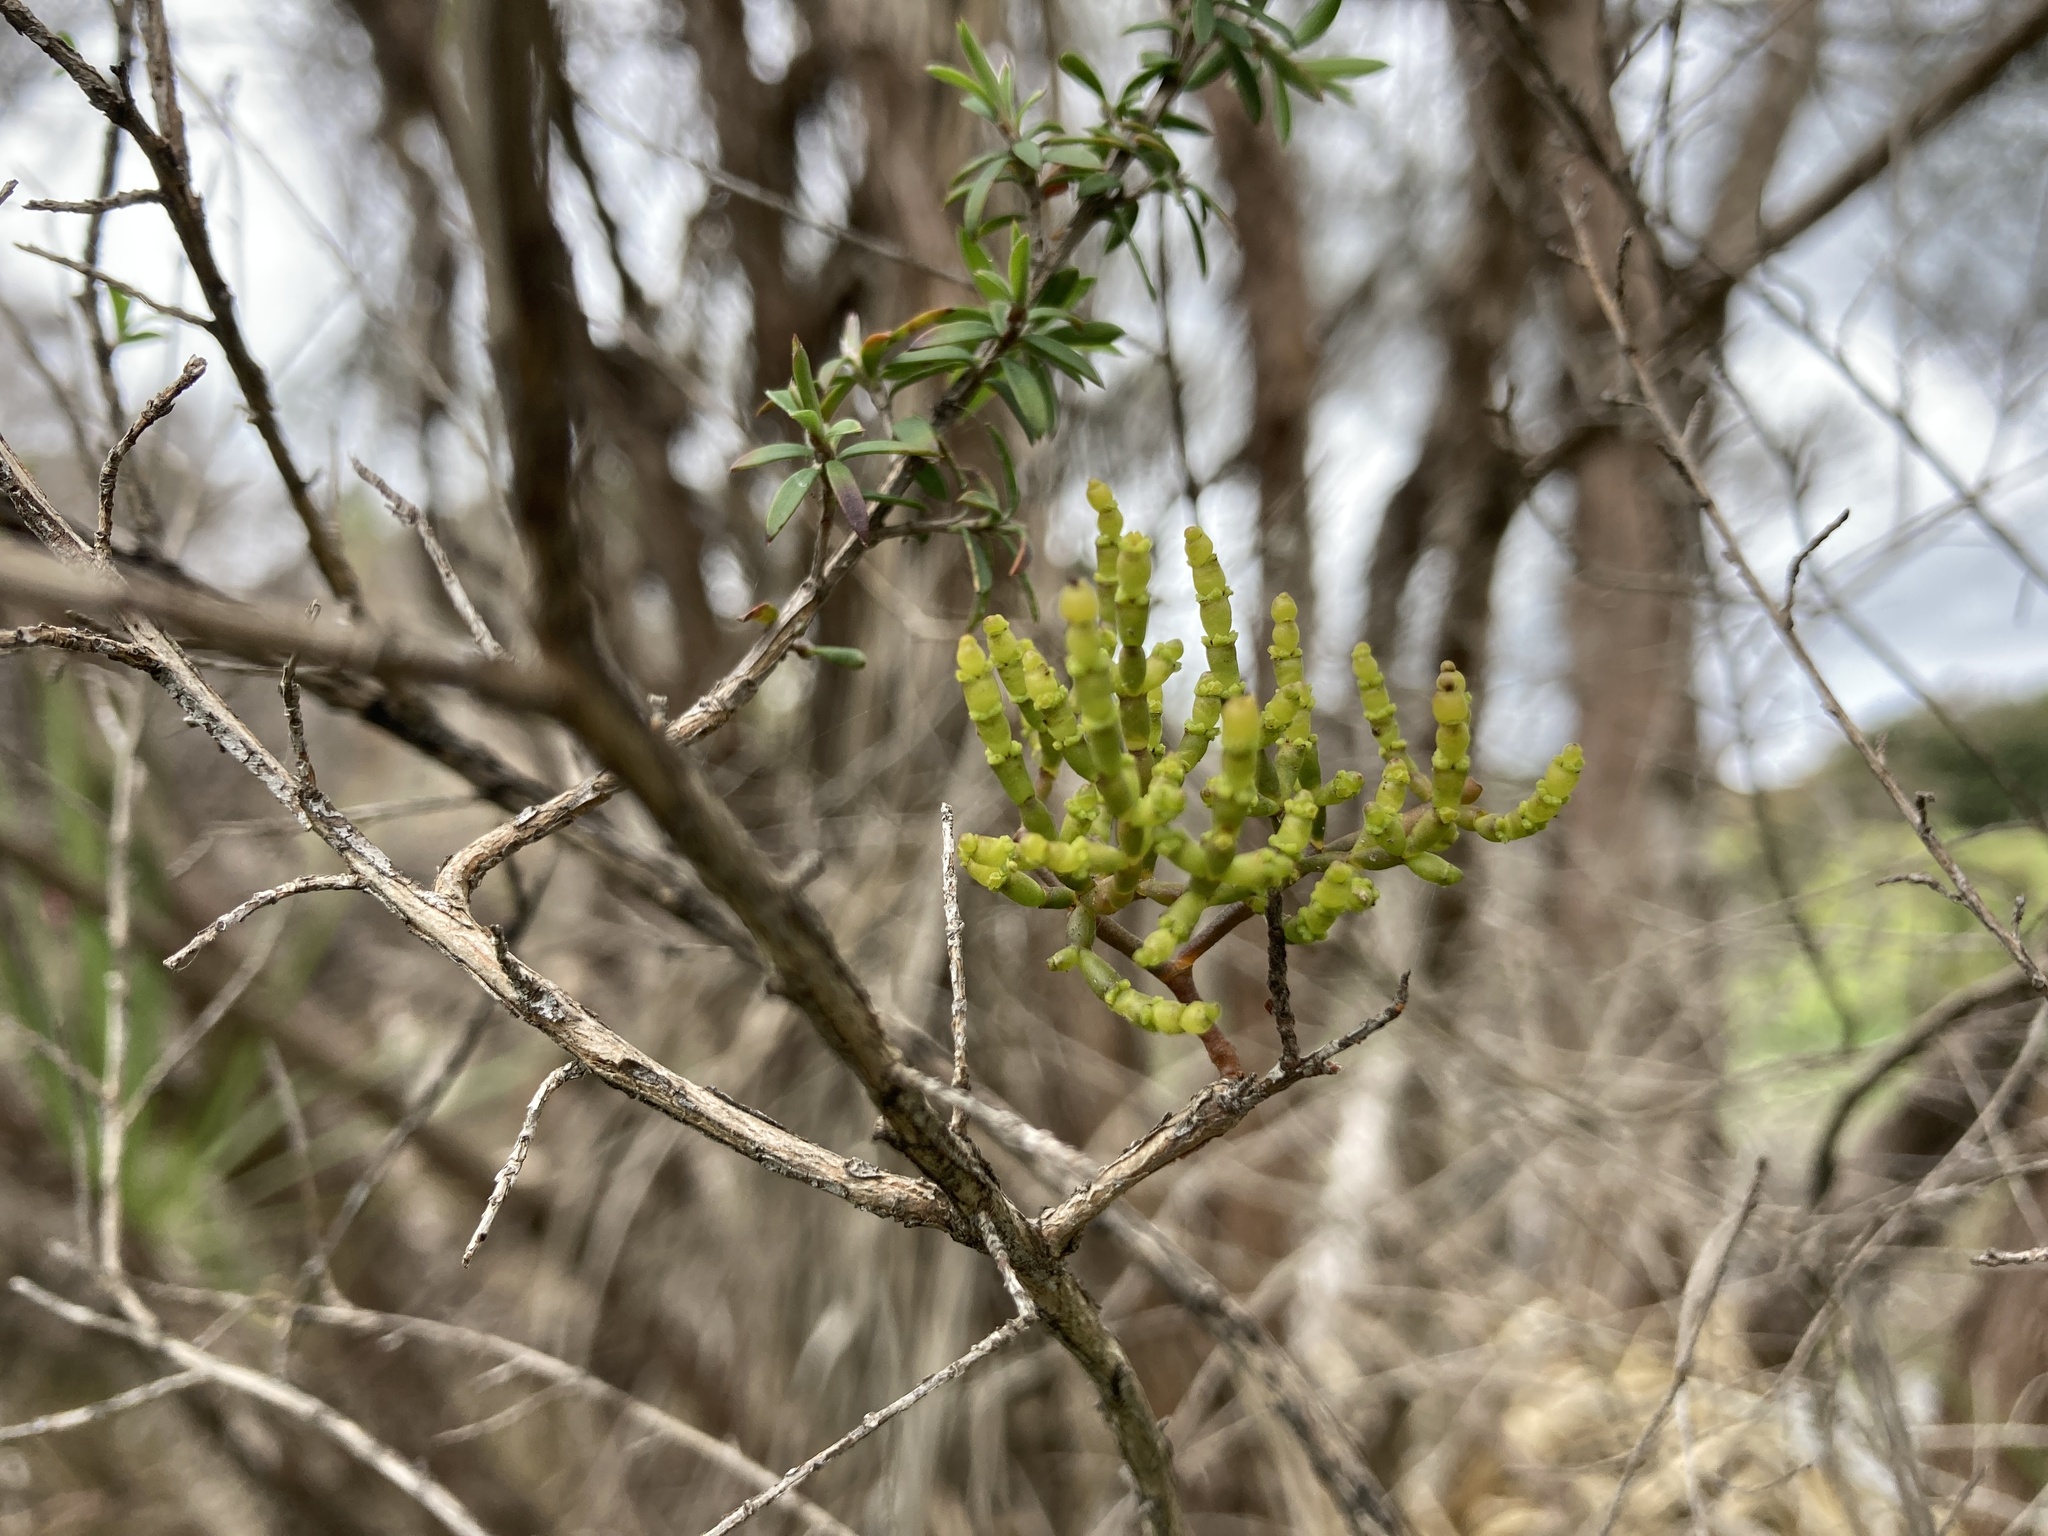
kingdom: Plantae
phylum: Tracheophyta
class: Magnoliopsida
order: Santalales
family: Viscaceae
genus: Korthalsella
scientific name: Korthalsella salicornioides
